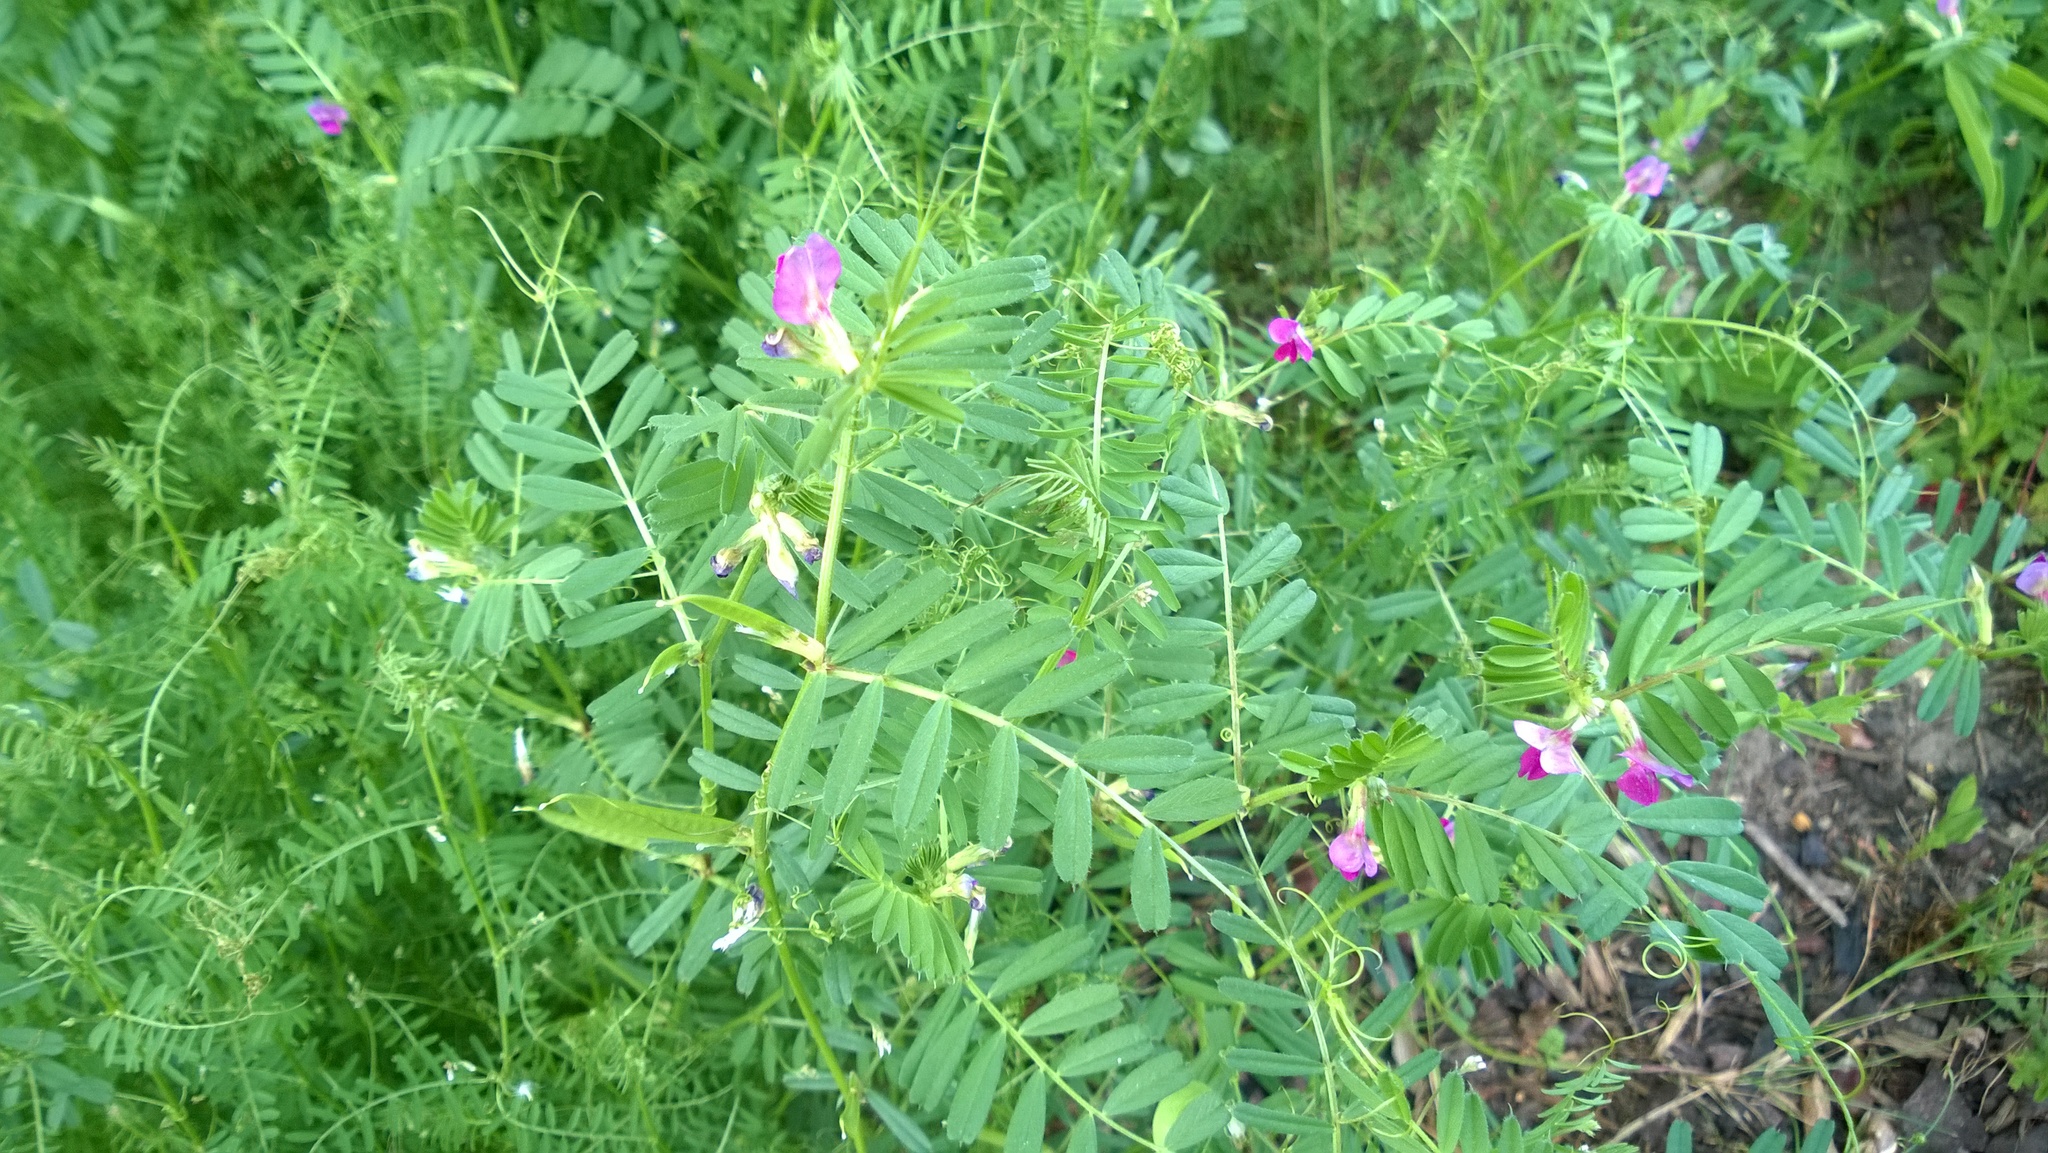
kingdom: Plantae
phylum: Tracheophyta
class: Magnoliopsida
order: Fabales
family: Fabaceae
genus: Vicia
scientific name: Vicia sativa
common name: Garden vetch
